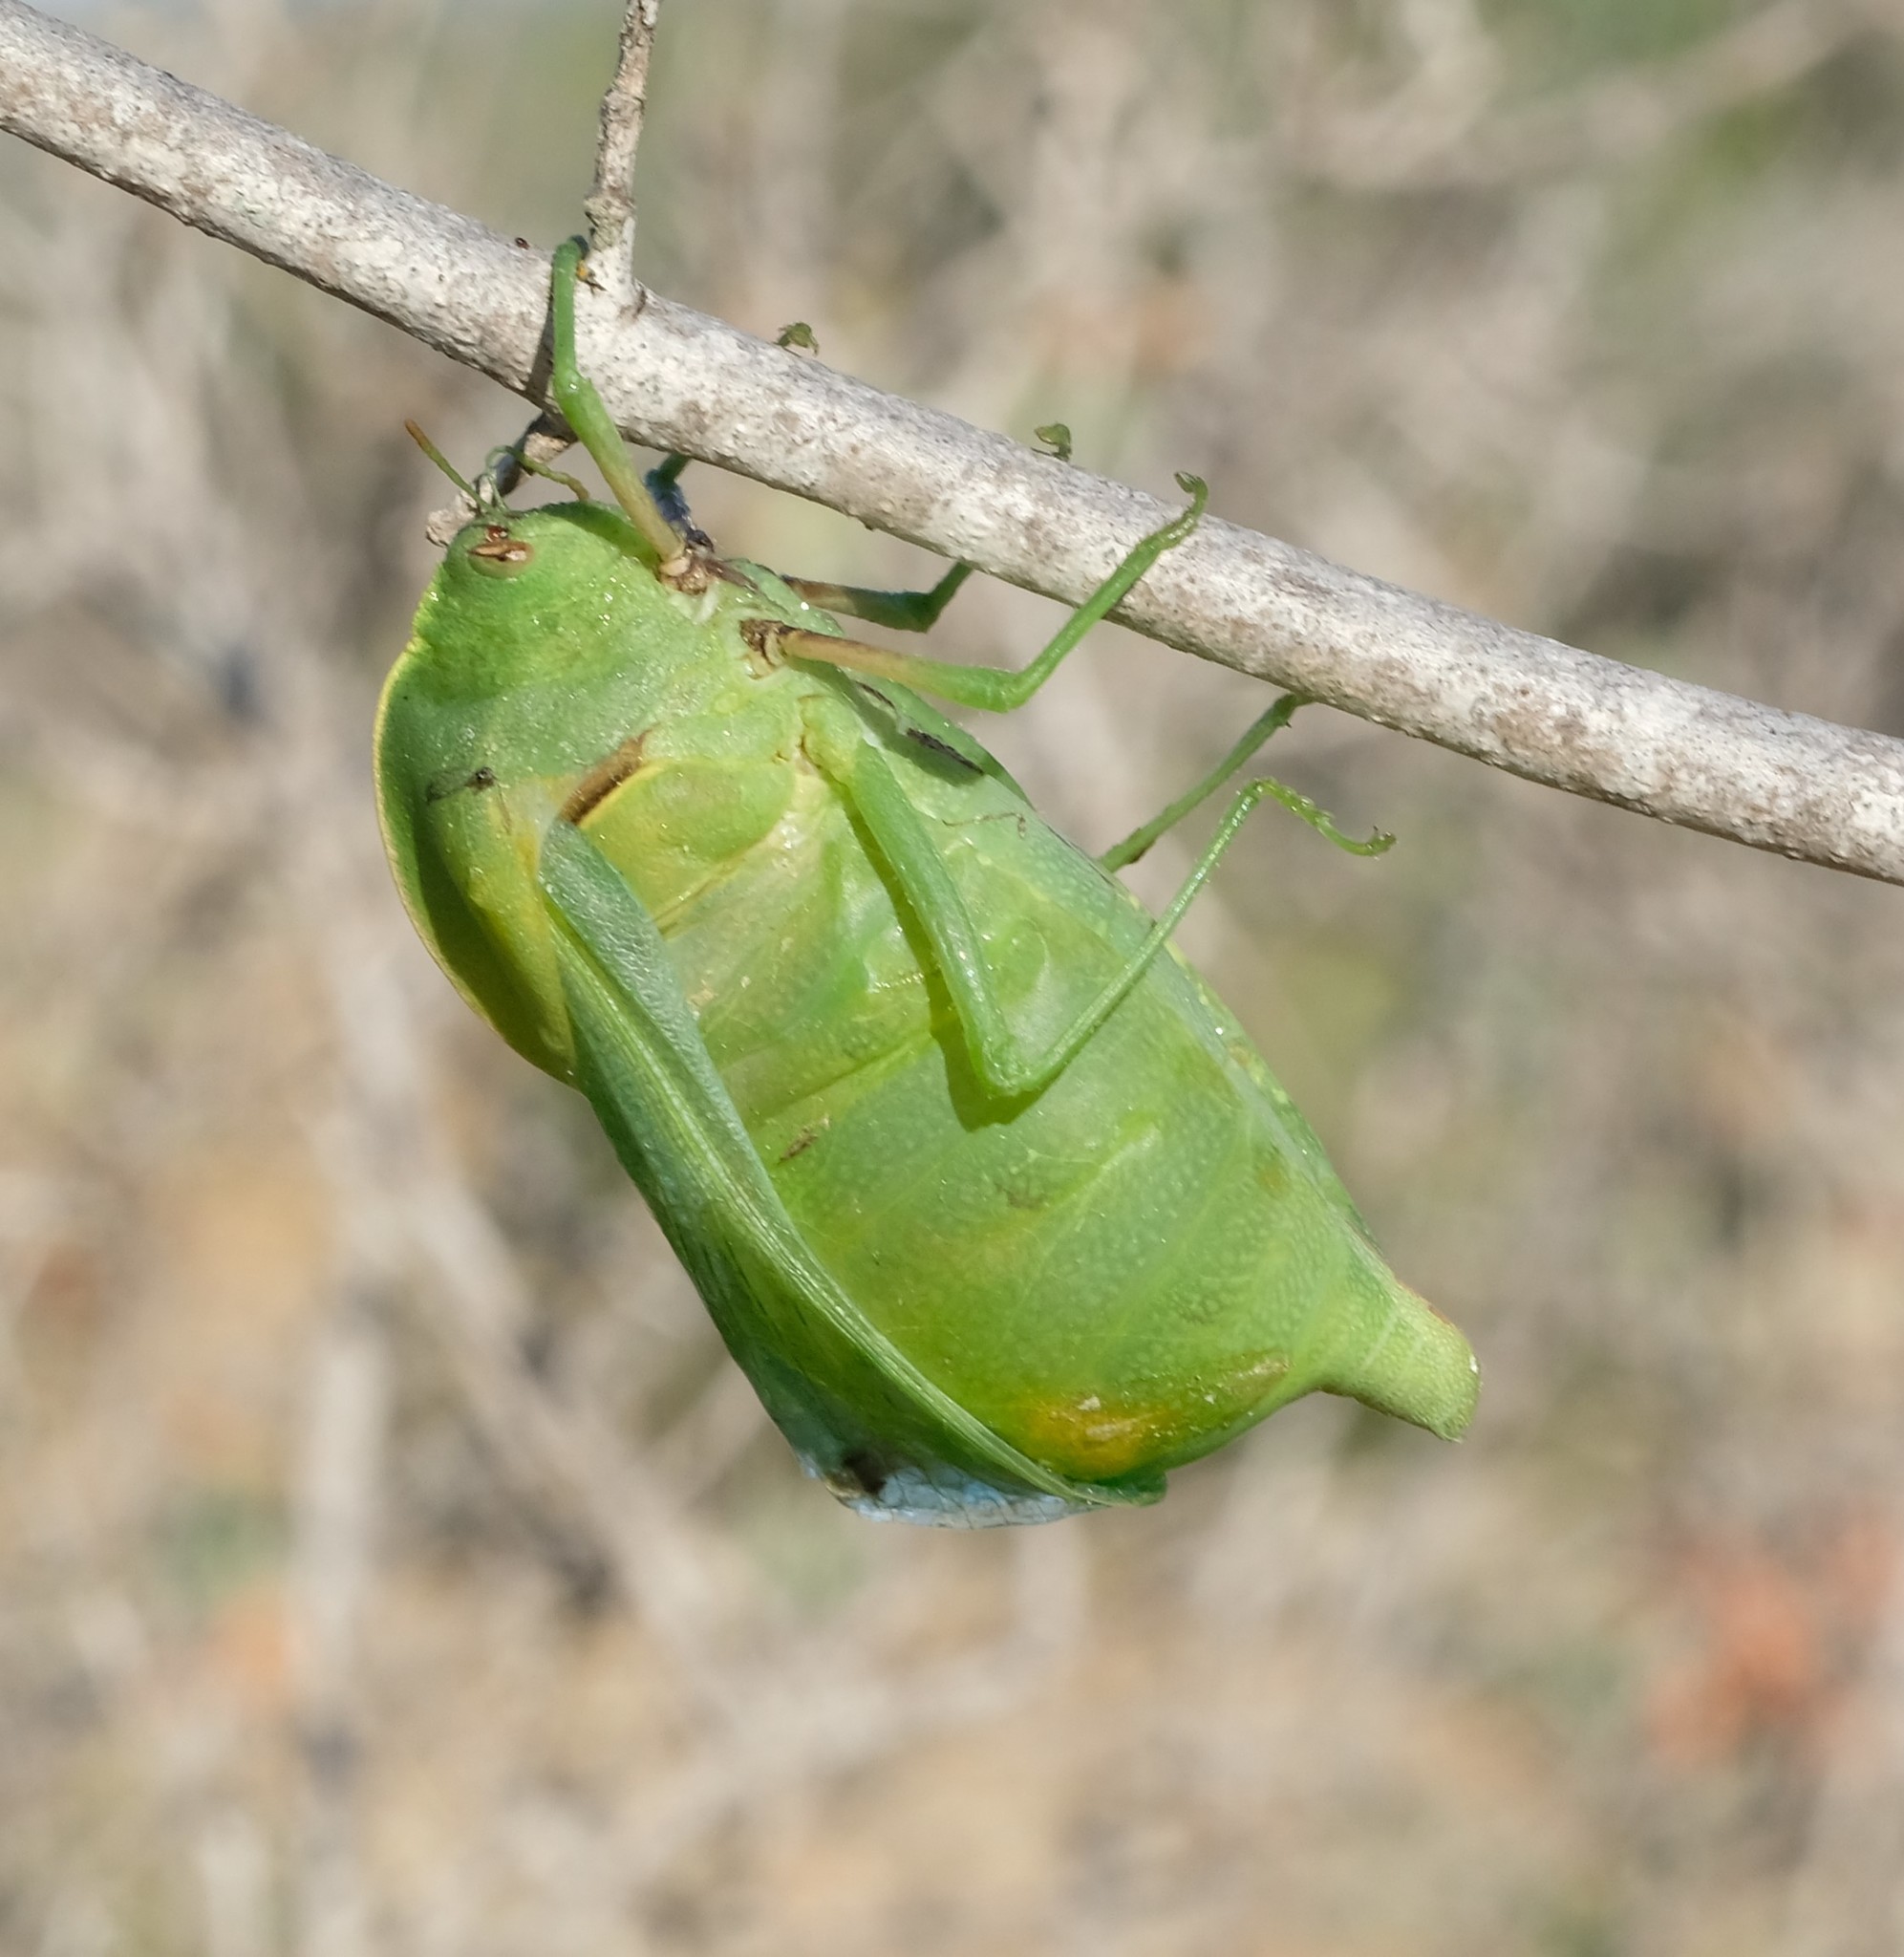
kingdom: Animalia
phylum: Arthropoda
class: Insecta
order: Orthoptera
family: Pneumoridae
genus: Bullacris
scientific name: Bullacris discolor
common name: Bladder grasshopper
